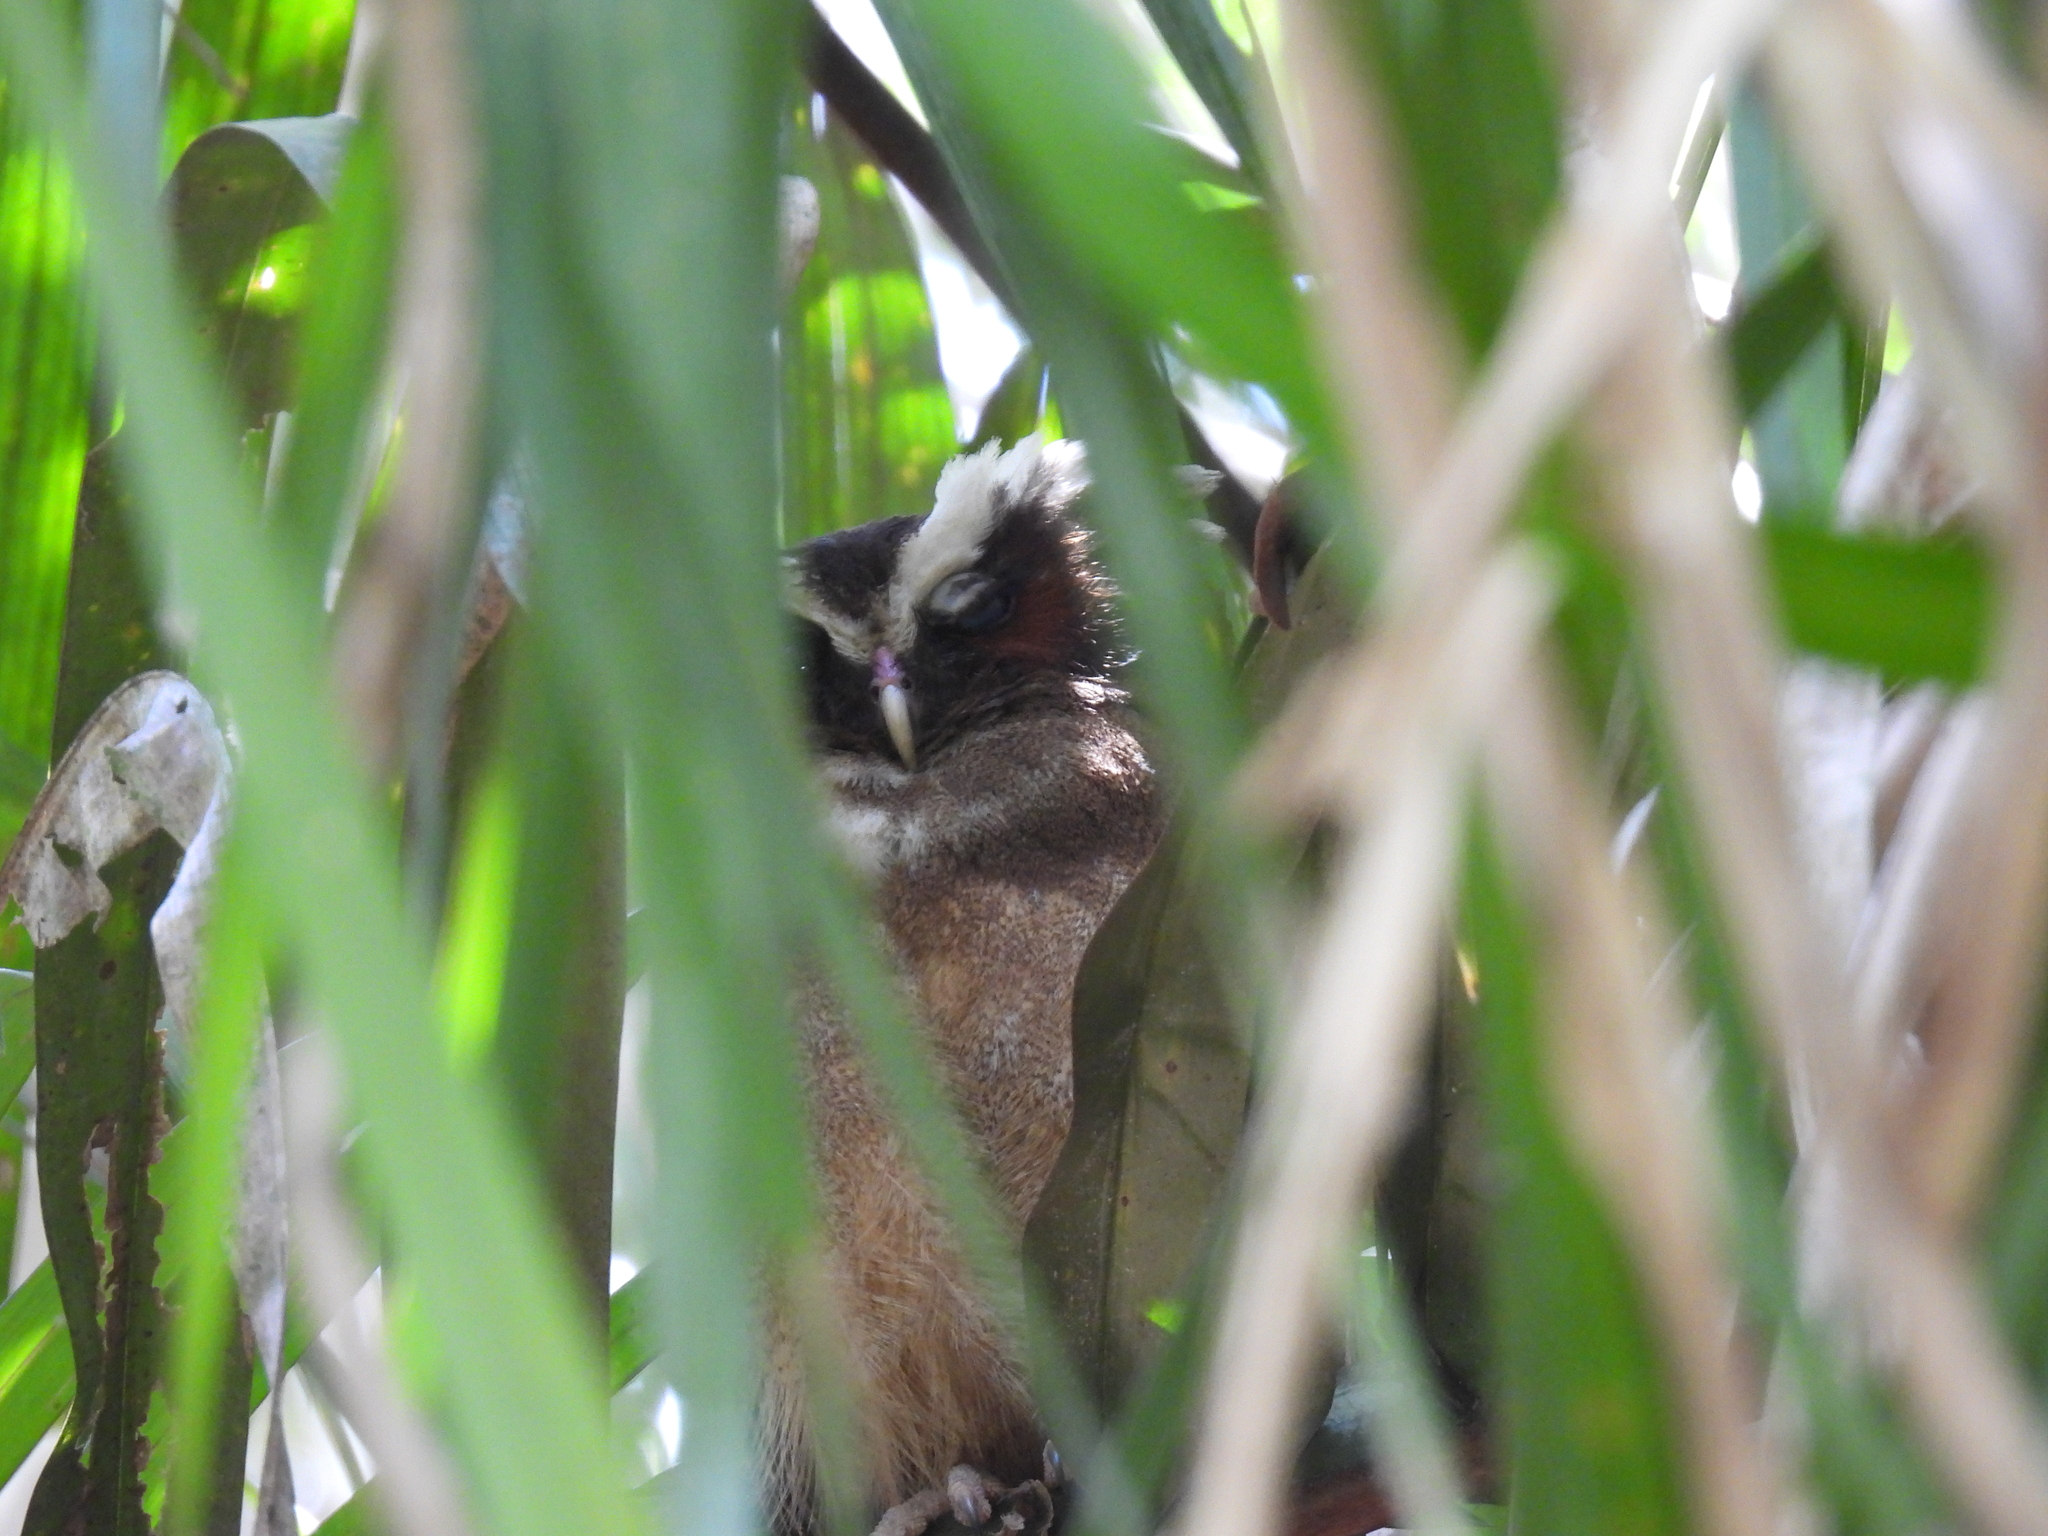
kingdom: Animalia
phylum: Chordata
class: Aves
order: Strigiformes
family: Strigidae
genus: Lophostrix
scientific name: Lophostrix cristata
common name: Crested owl
